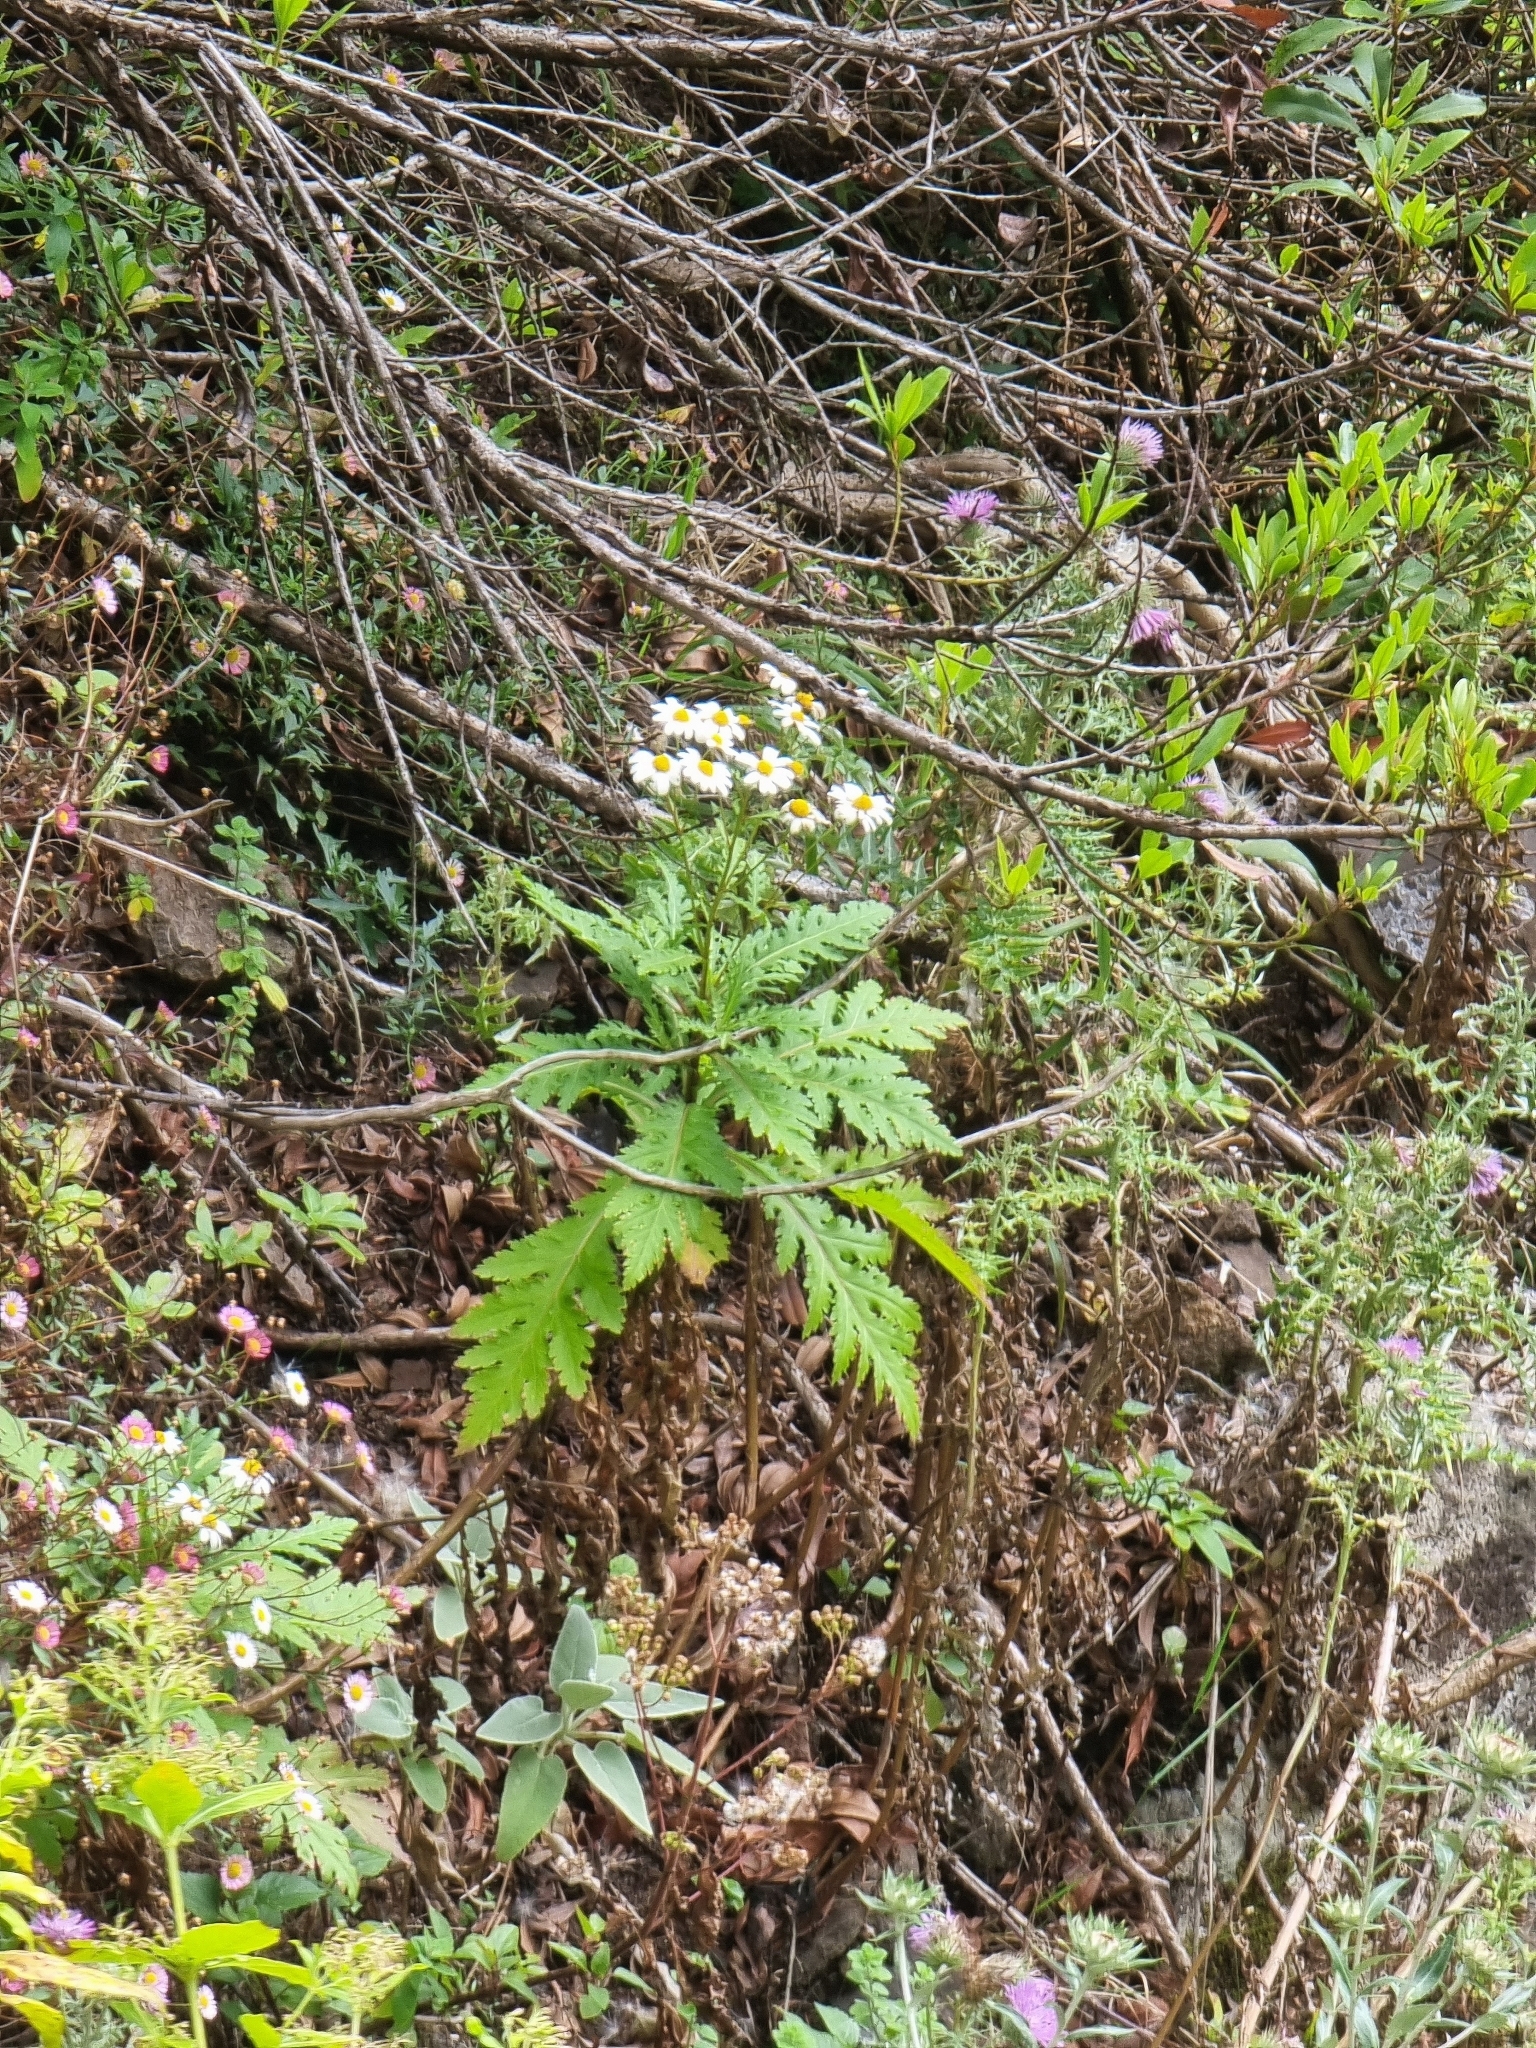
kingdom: Plantae
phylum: Tracheophyta
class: Magnoliopsida
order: Asterales
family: Asteraceae
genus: Argyranthemum
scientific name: Argyranthemum pinnatifidum
